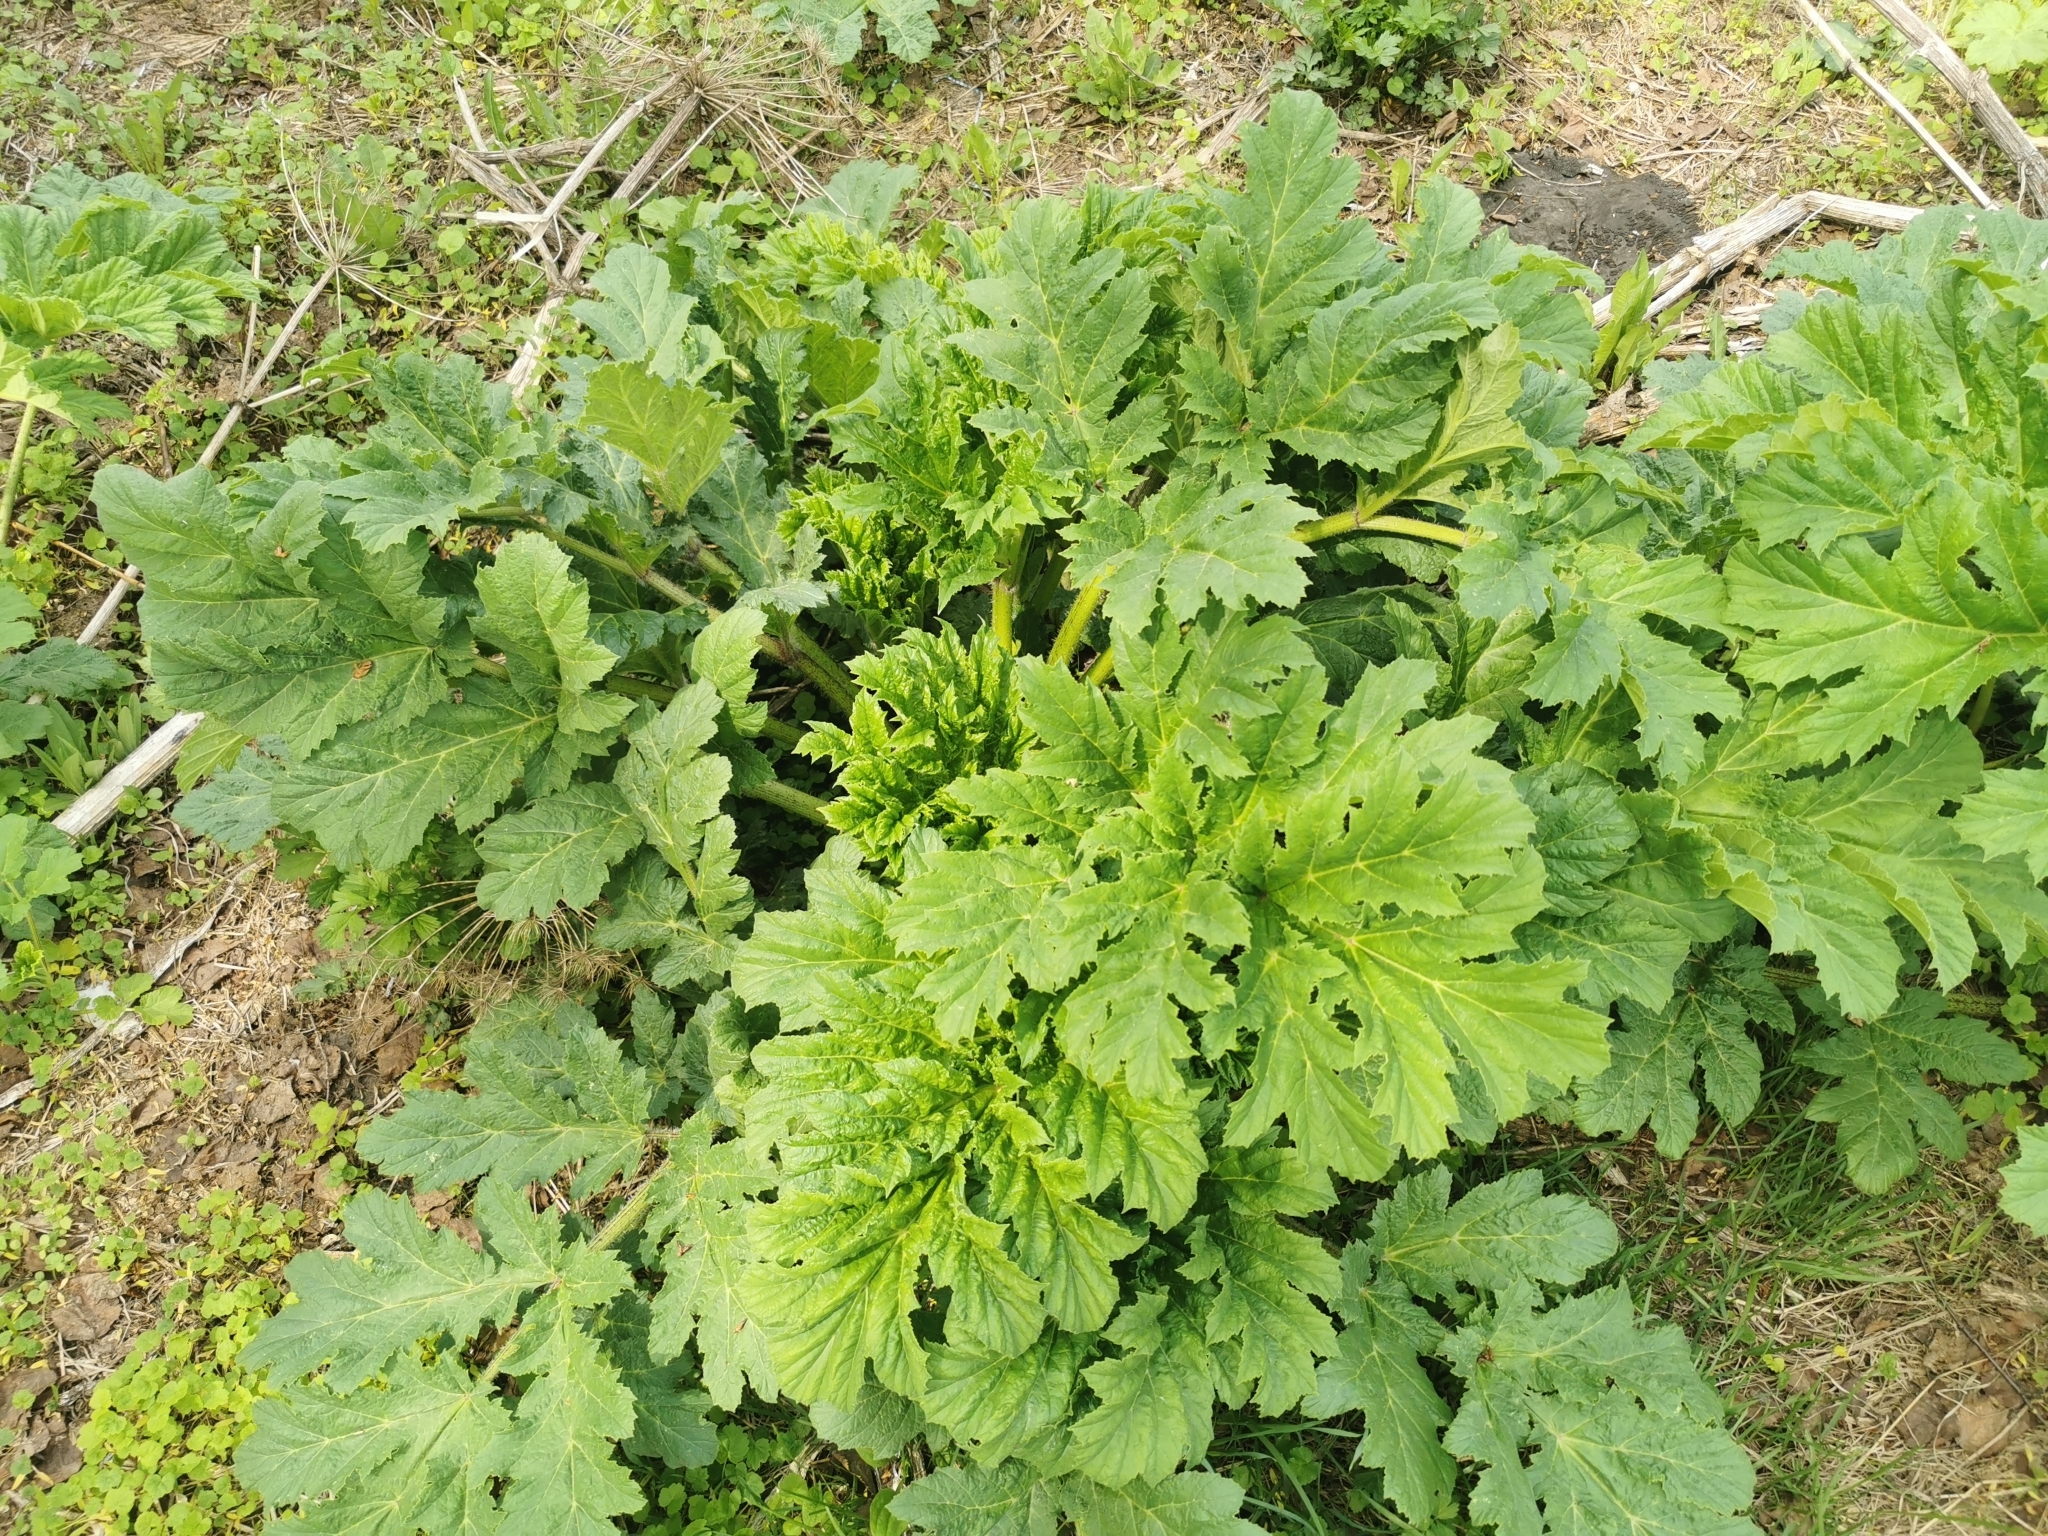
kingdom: Plantae
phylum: Tracheophyta
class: Magnoliopsida
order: Apiales
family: Apiaceae
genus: Heracleum
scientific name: Heracleum sosnowskyi
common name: Sosnowsky's hogweed
